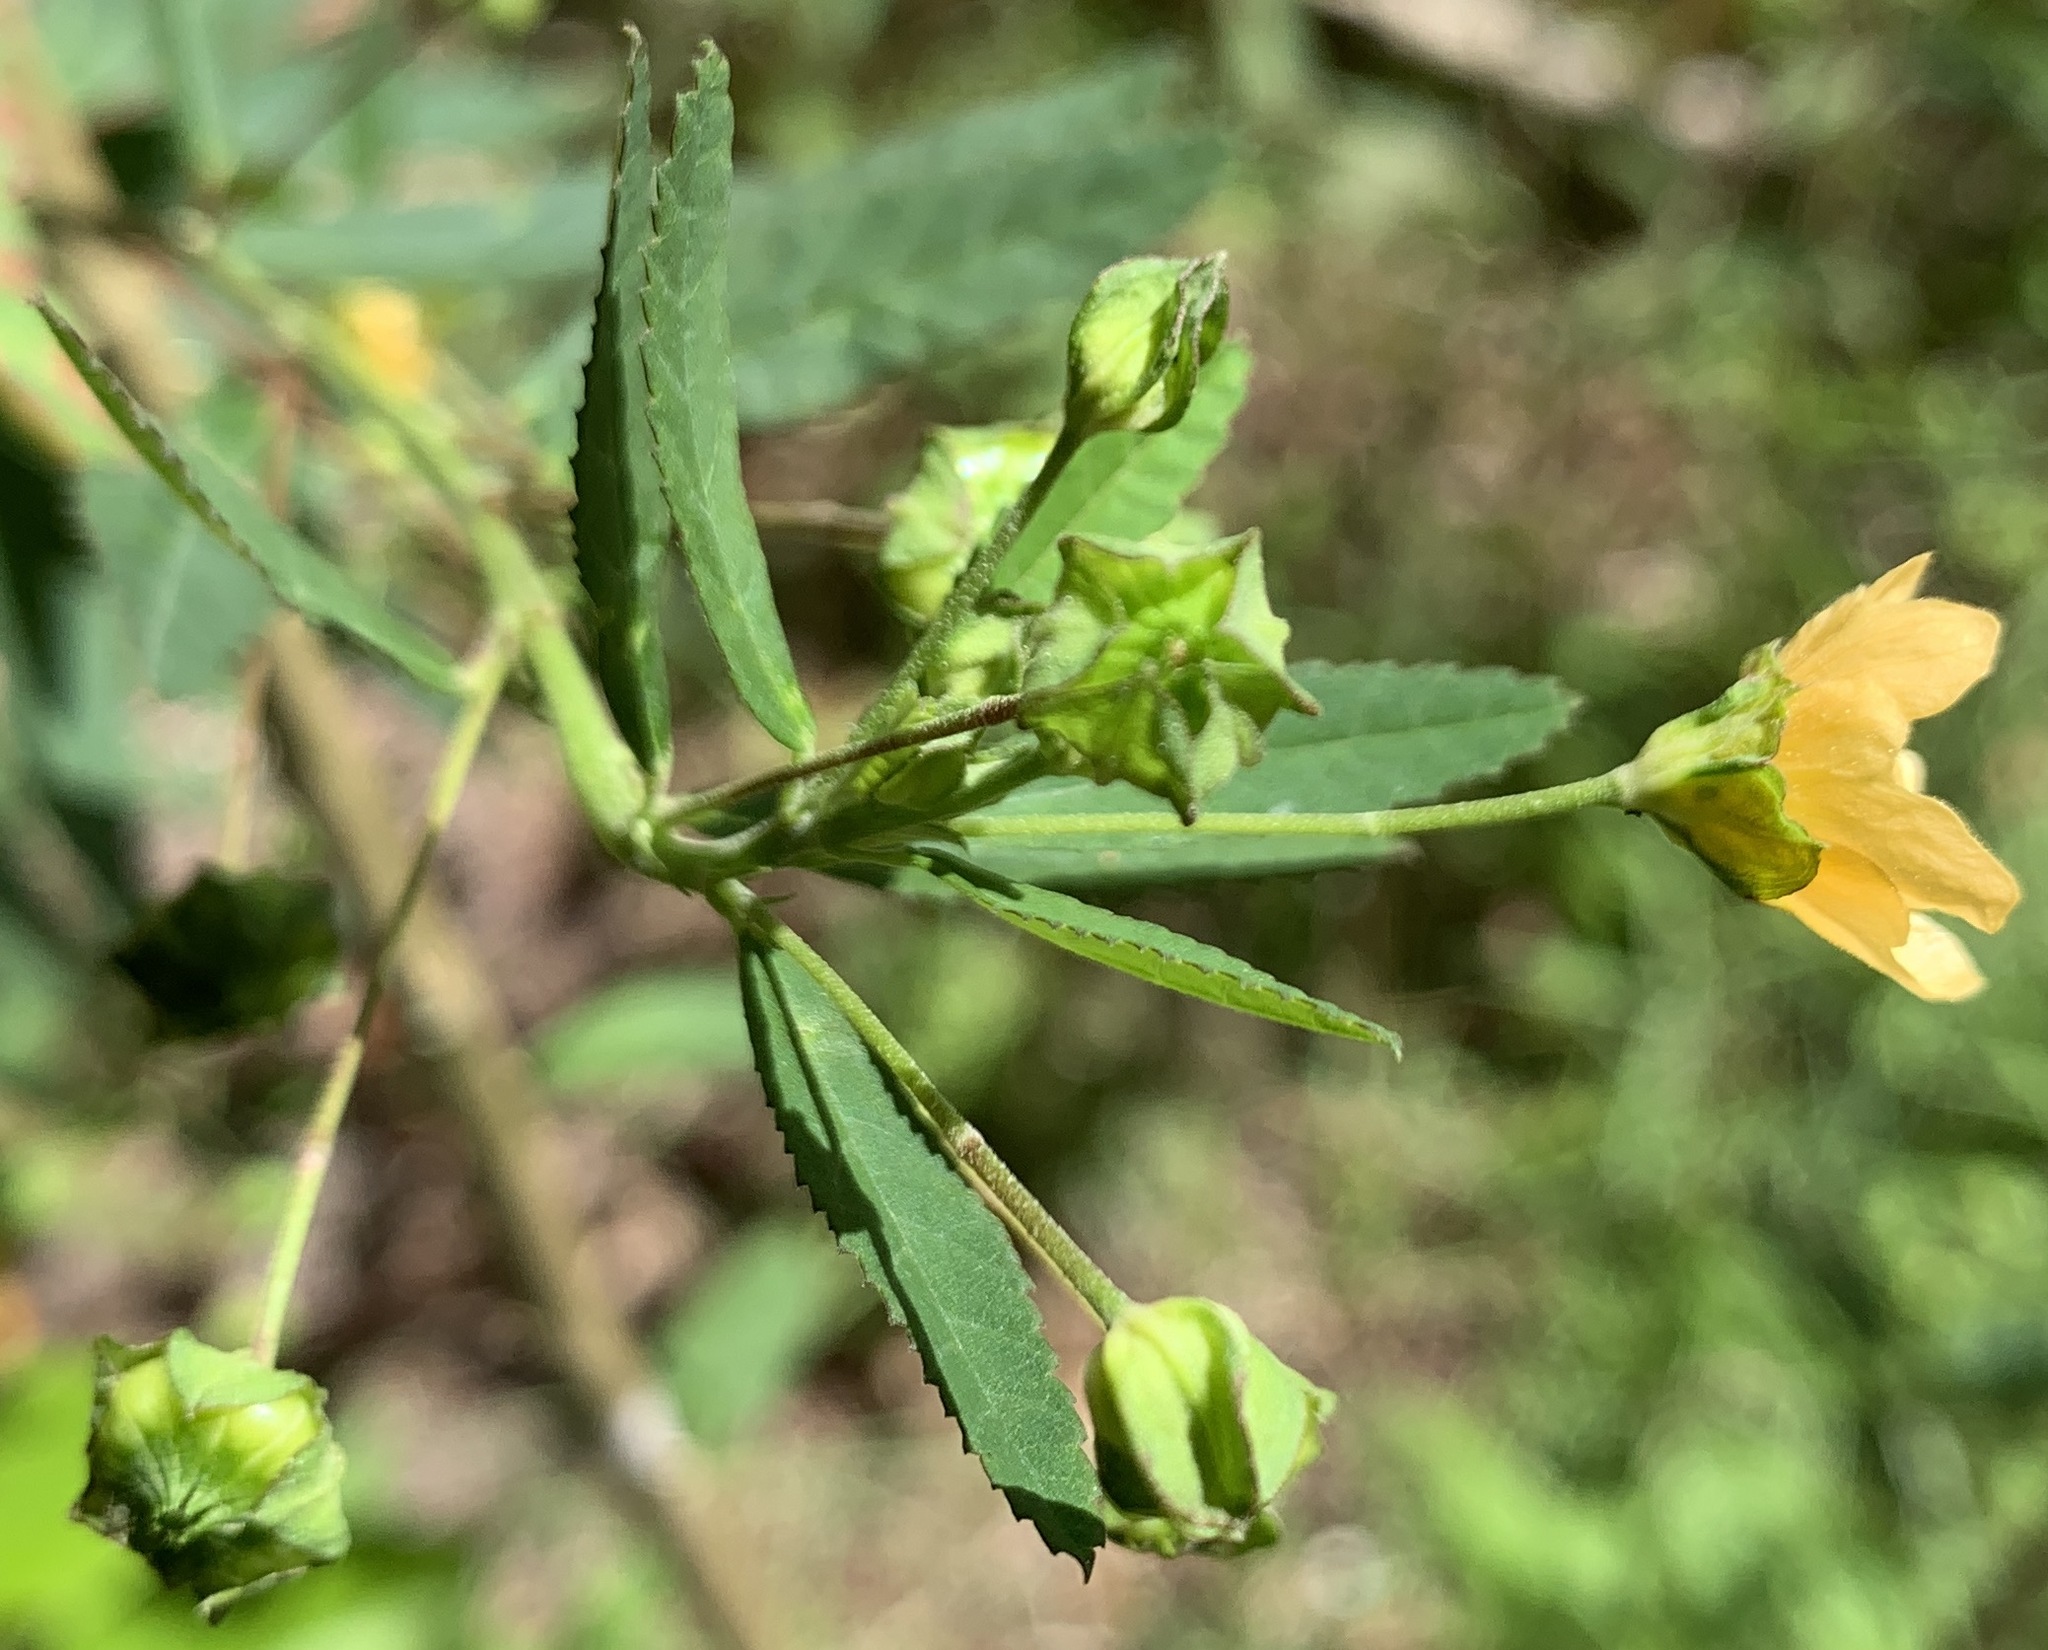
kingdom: Plantae
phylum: Tracheophyta
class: Magnoliopsida
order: Malvales
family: Malvaceae
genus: Sida
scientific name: Sida rhombifolia
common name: Queensland-hemp
